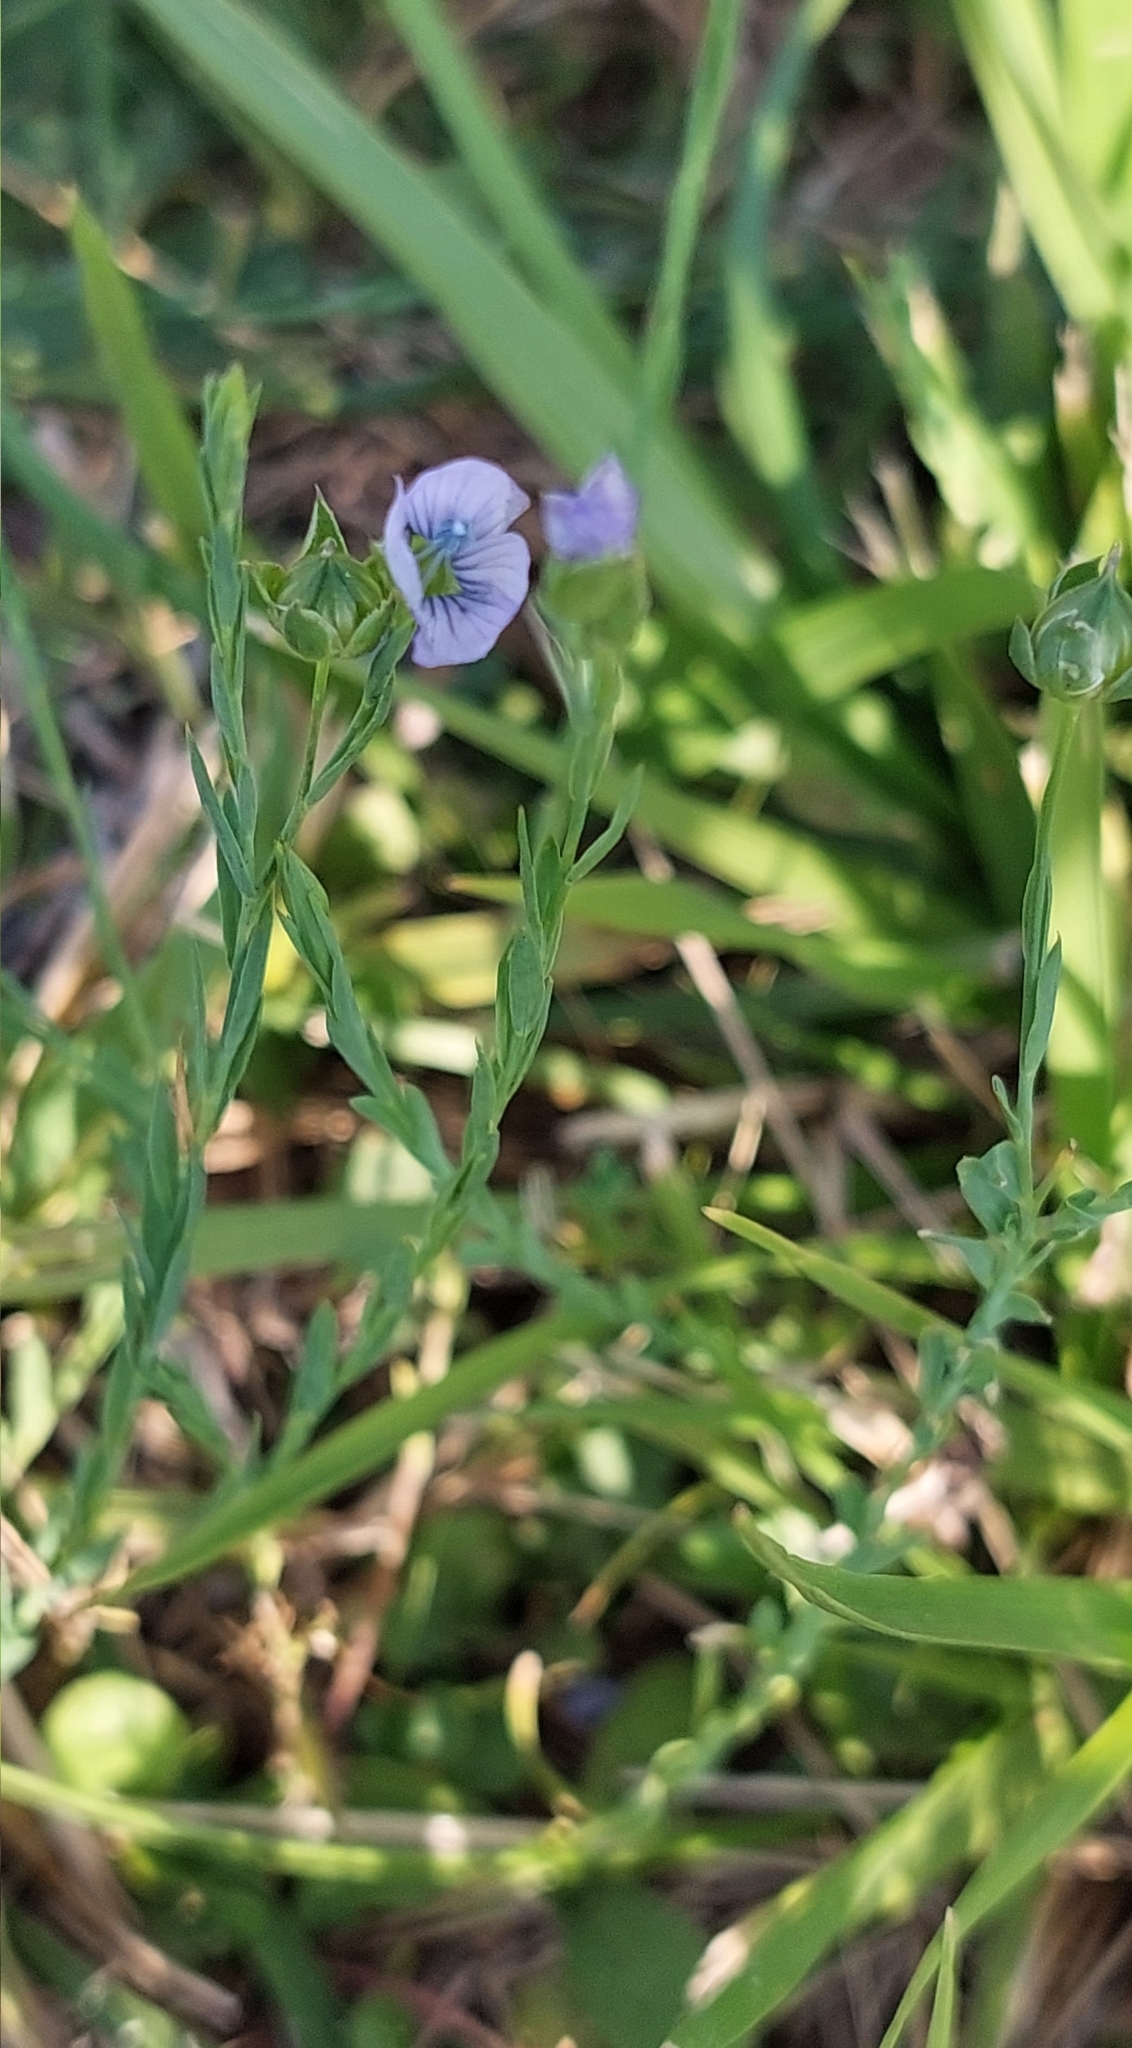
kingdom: Plantae
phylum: Tracheophyta
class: Magnoliopsida
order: Malpighiales
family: Linaceae
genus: Linum
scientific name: Linum bienne
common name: Pale flax
